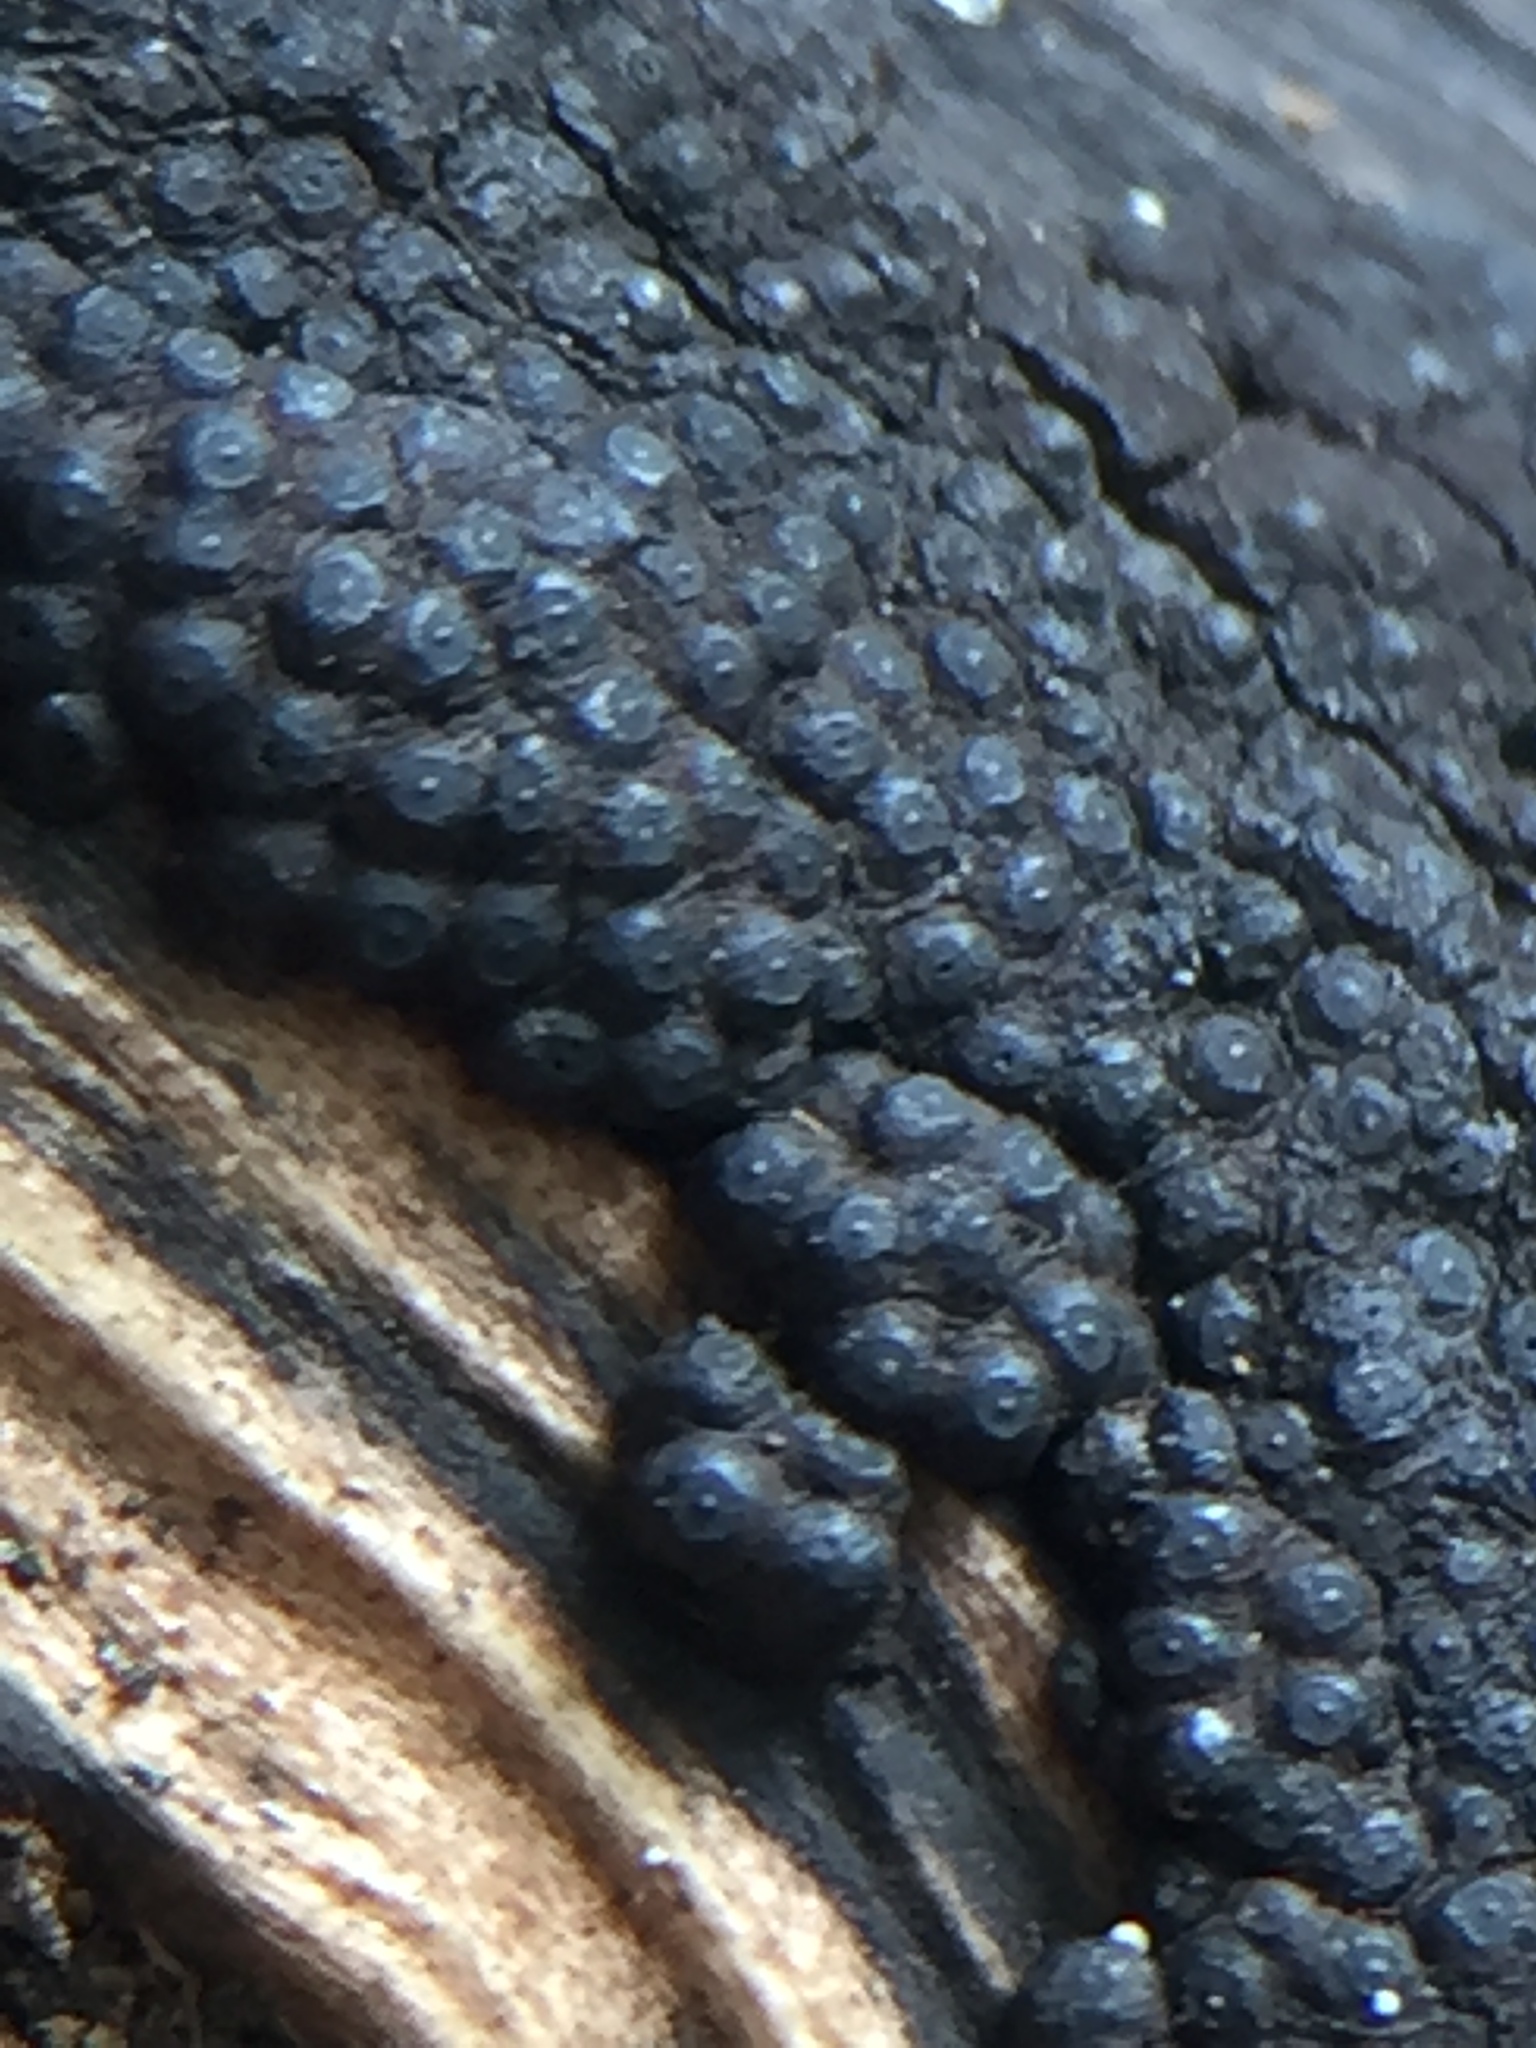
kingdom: Fungi
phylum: Ascomycota
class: Sordariomycetes
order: Xylariales
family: Hypoxylaceae
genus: Annulohypoxylon
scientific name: Annulohypoxylon bovei
